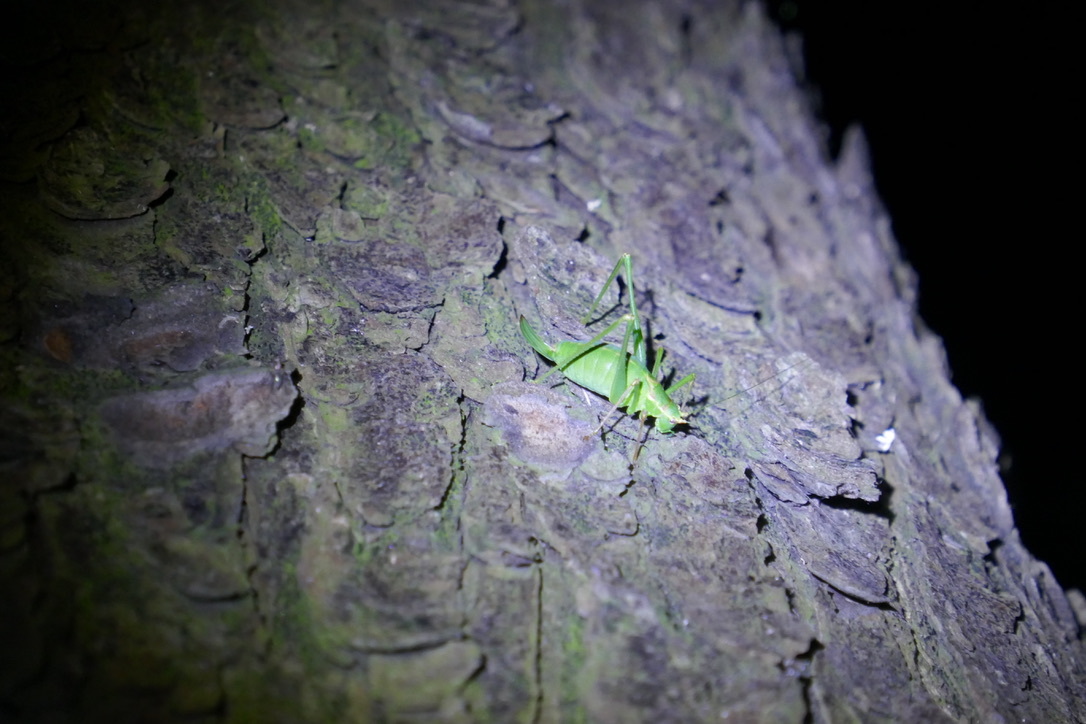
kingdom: Animalia
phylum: Arthropoda
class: Insecta
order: Orthoptera
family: Tettigoniidae
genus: Leptophyes
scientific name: Leptophyes punctatissima
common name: Speckled bush-cricket
